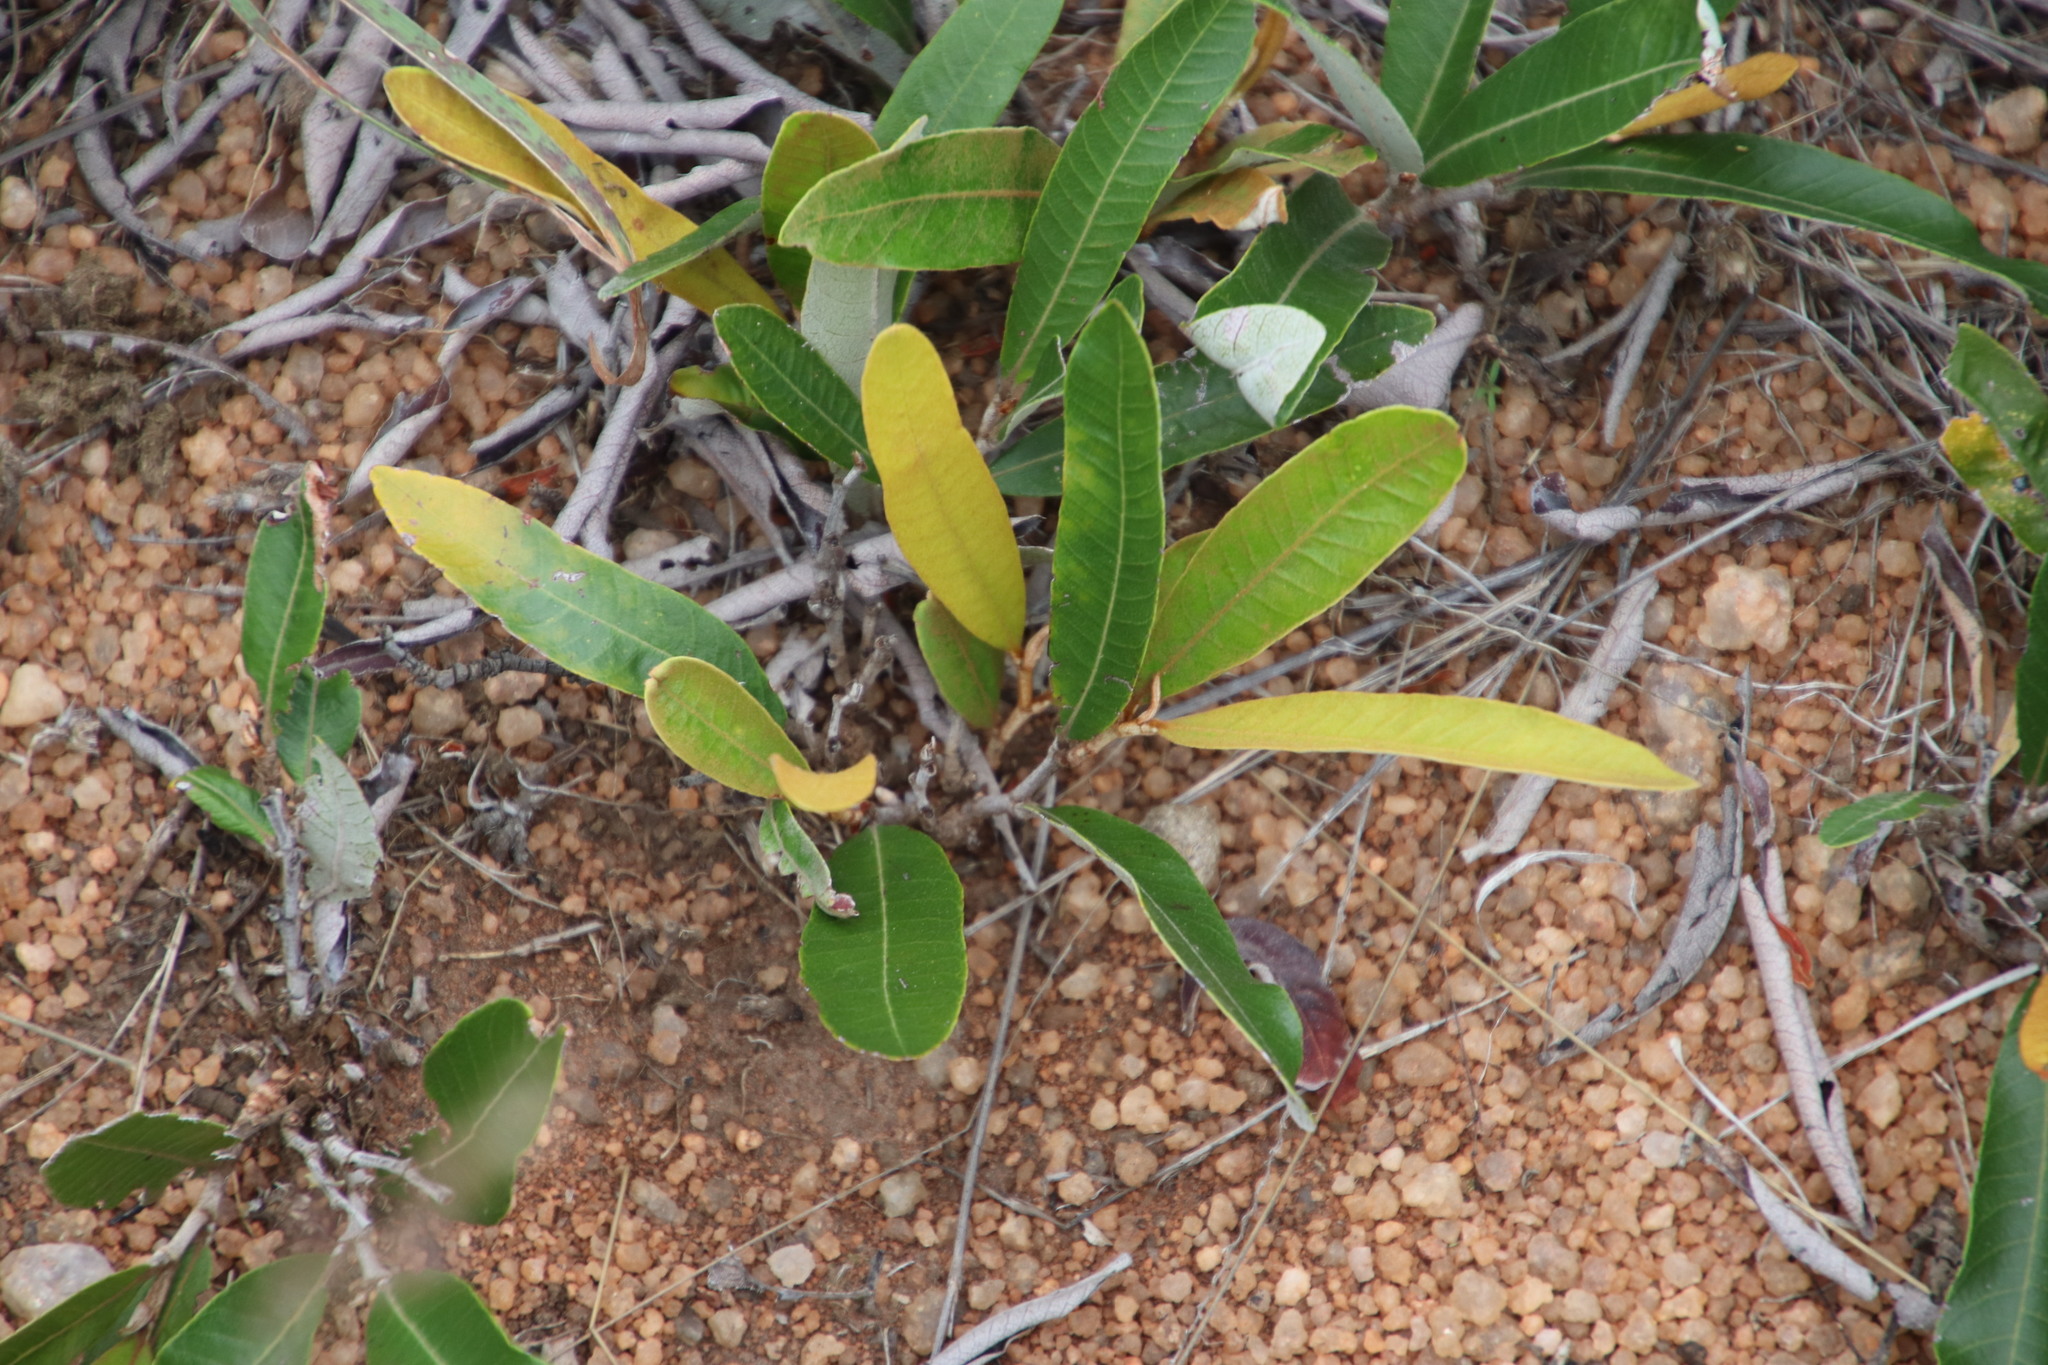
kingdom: Plantae
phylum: Tracheophyta
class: Magnoliopsida
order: Malpighiales
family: Chrysobalanaceae
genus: Parinari
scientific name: Parinari capensis
